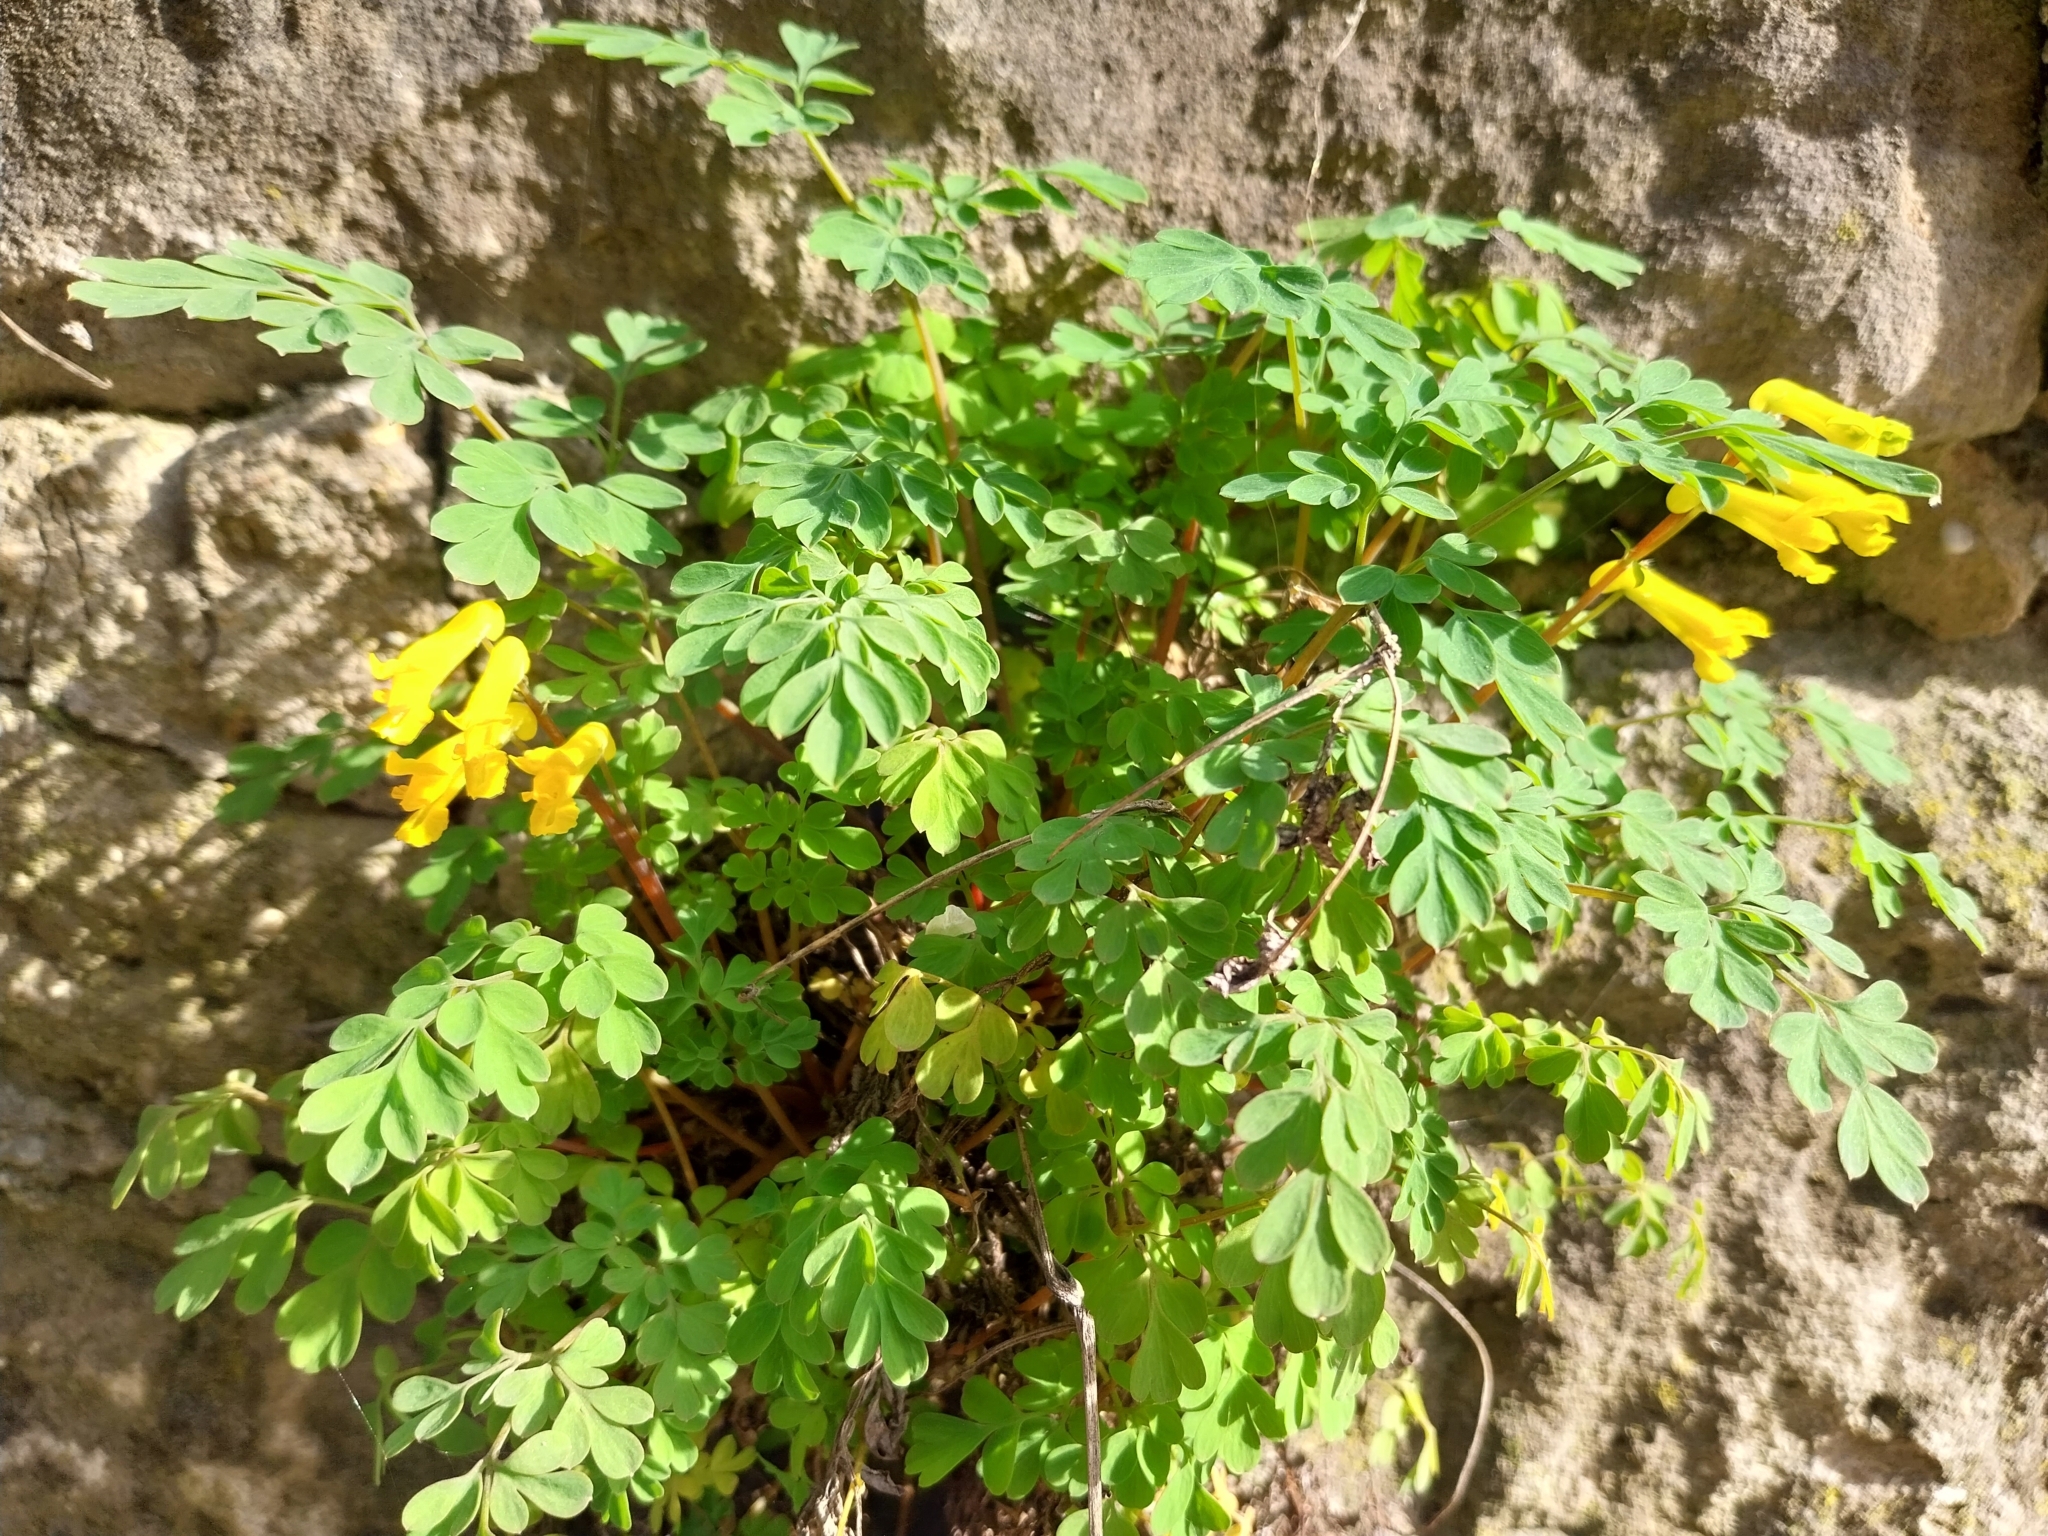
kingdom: Plantae
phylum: Tracheophyta
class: Magnoliopsida
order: Ranunculales
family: Papaveraceae
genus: Pseudofumaria
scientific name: Pseudofumaria lutea
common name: Yellow corydalis
